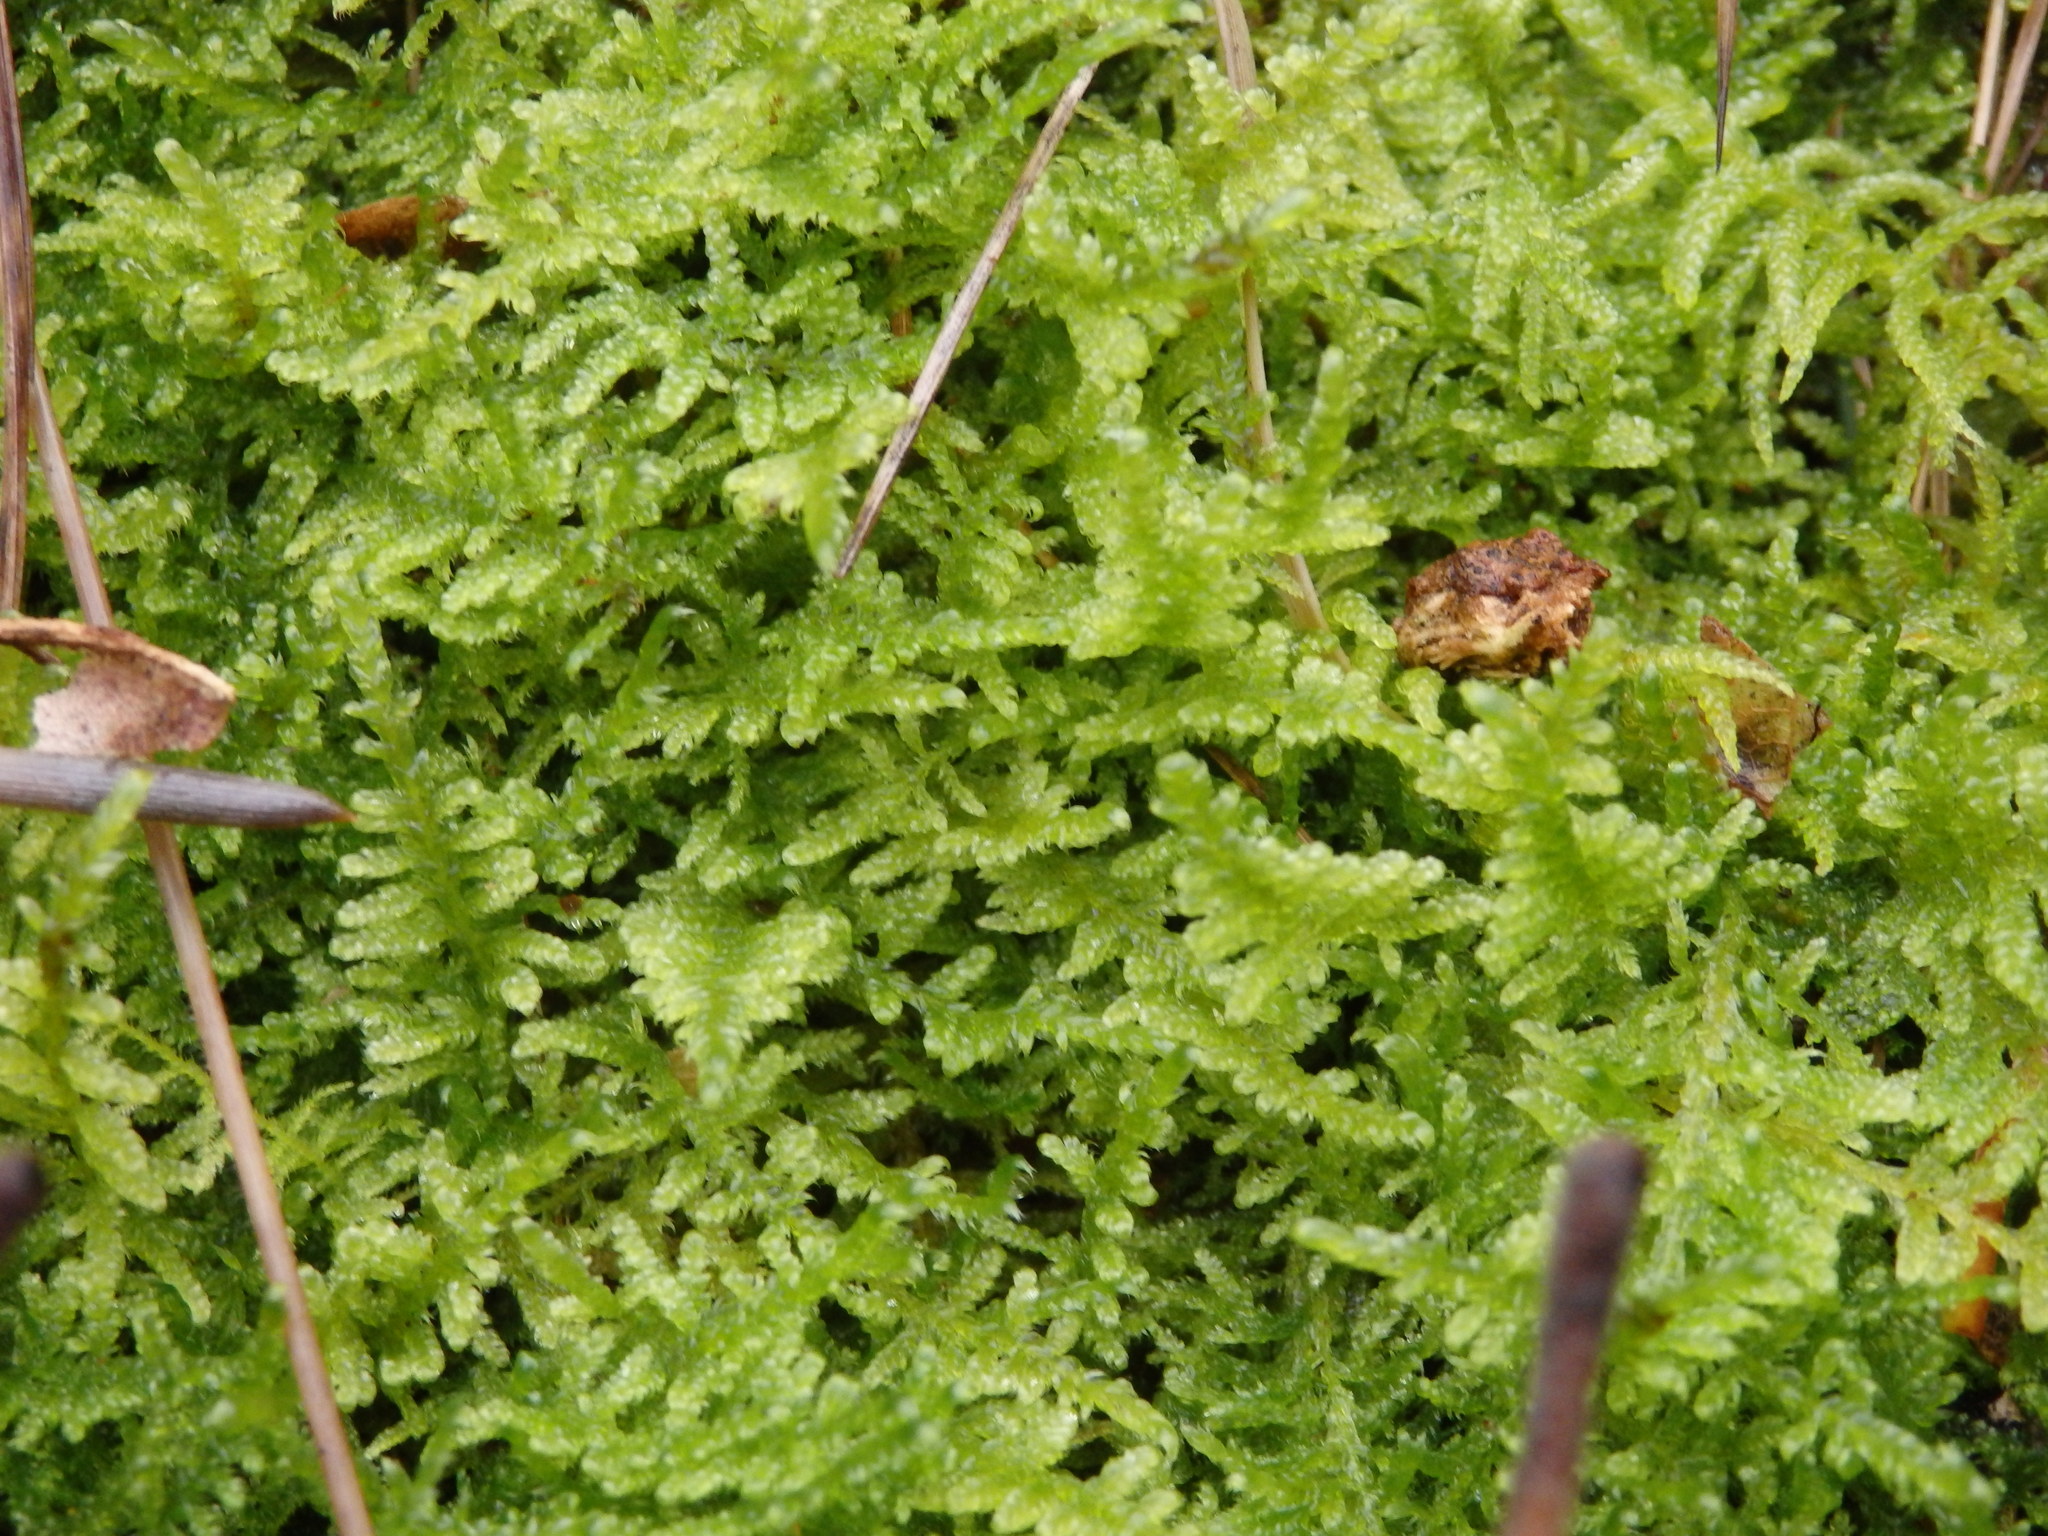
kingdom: Plantae
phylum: Bryophyta
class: Bryopsida
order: Hypnales
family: Amblystegiaceae
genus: Palustriella
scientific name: Palustriella commutata
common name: Curled hook-moss
